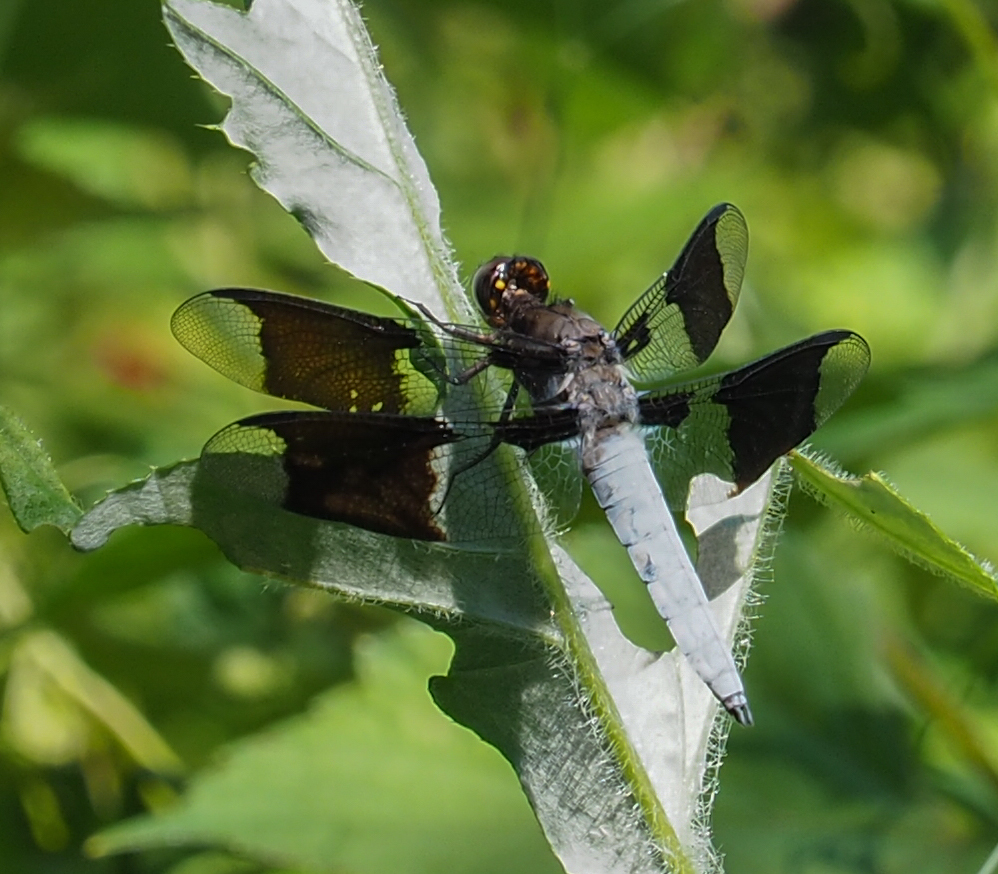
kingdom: Animalia
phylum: Arthropoda
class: Insecta
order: Odonata
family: Libellulidae
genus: Plathemis
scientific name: Plathemis lydia
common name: Common whitetail
